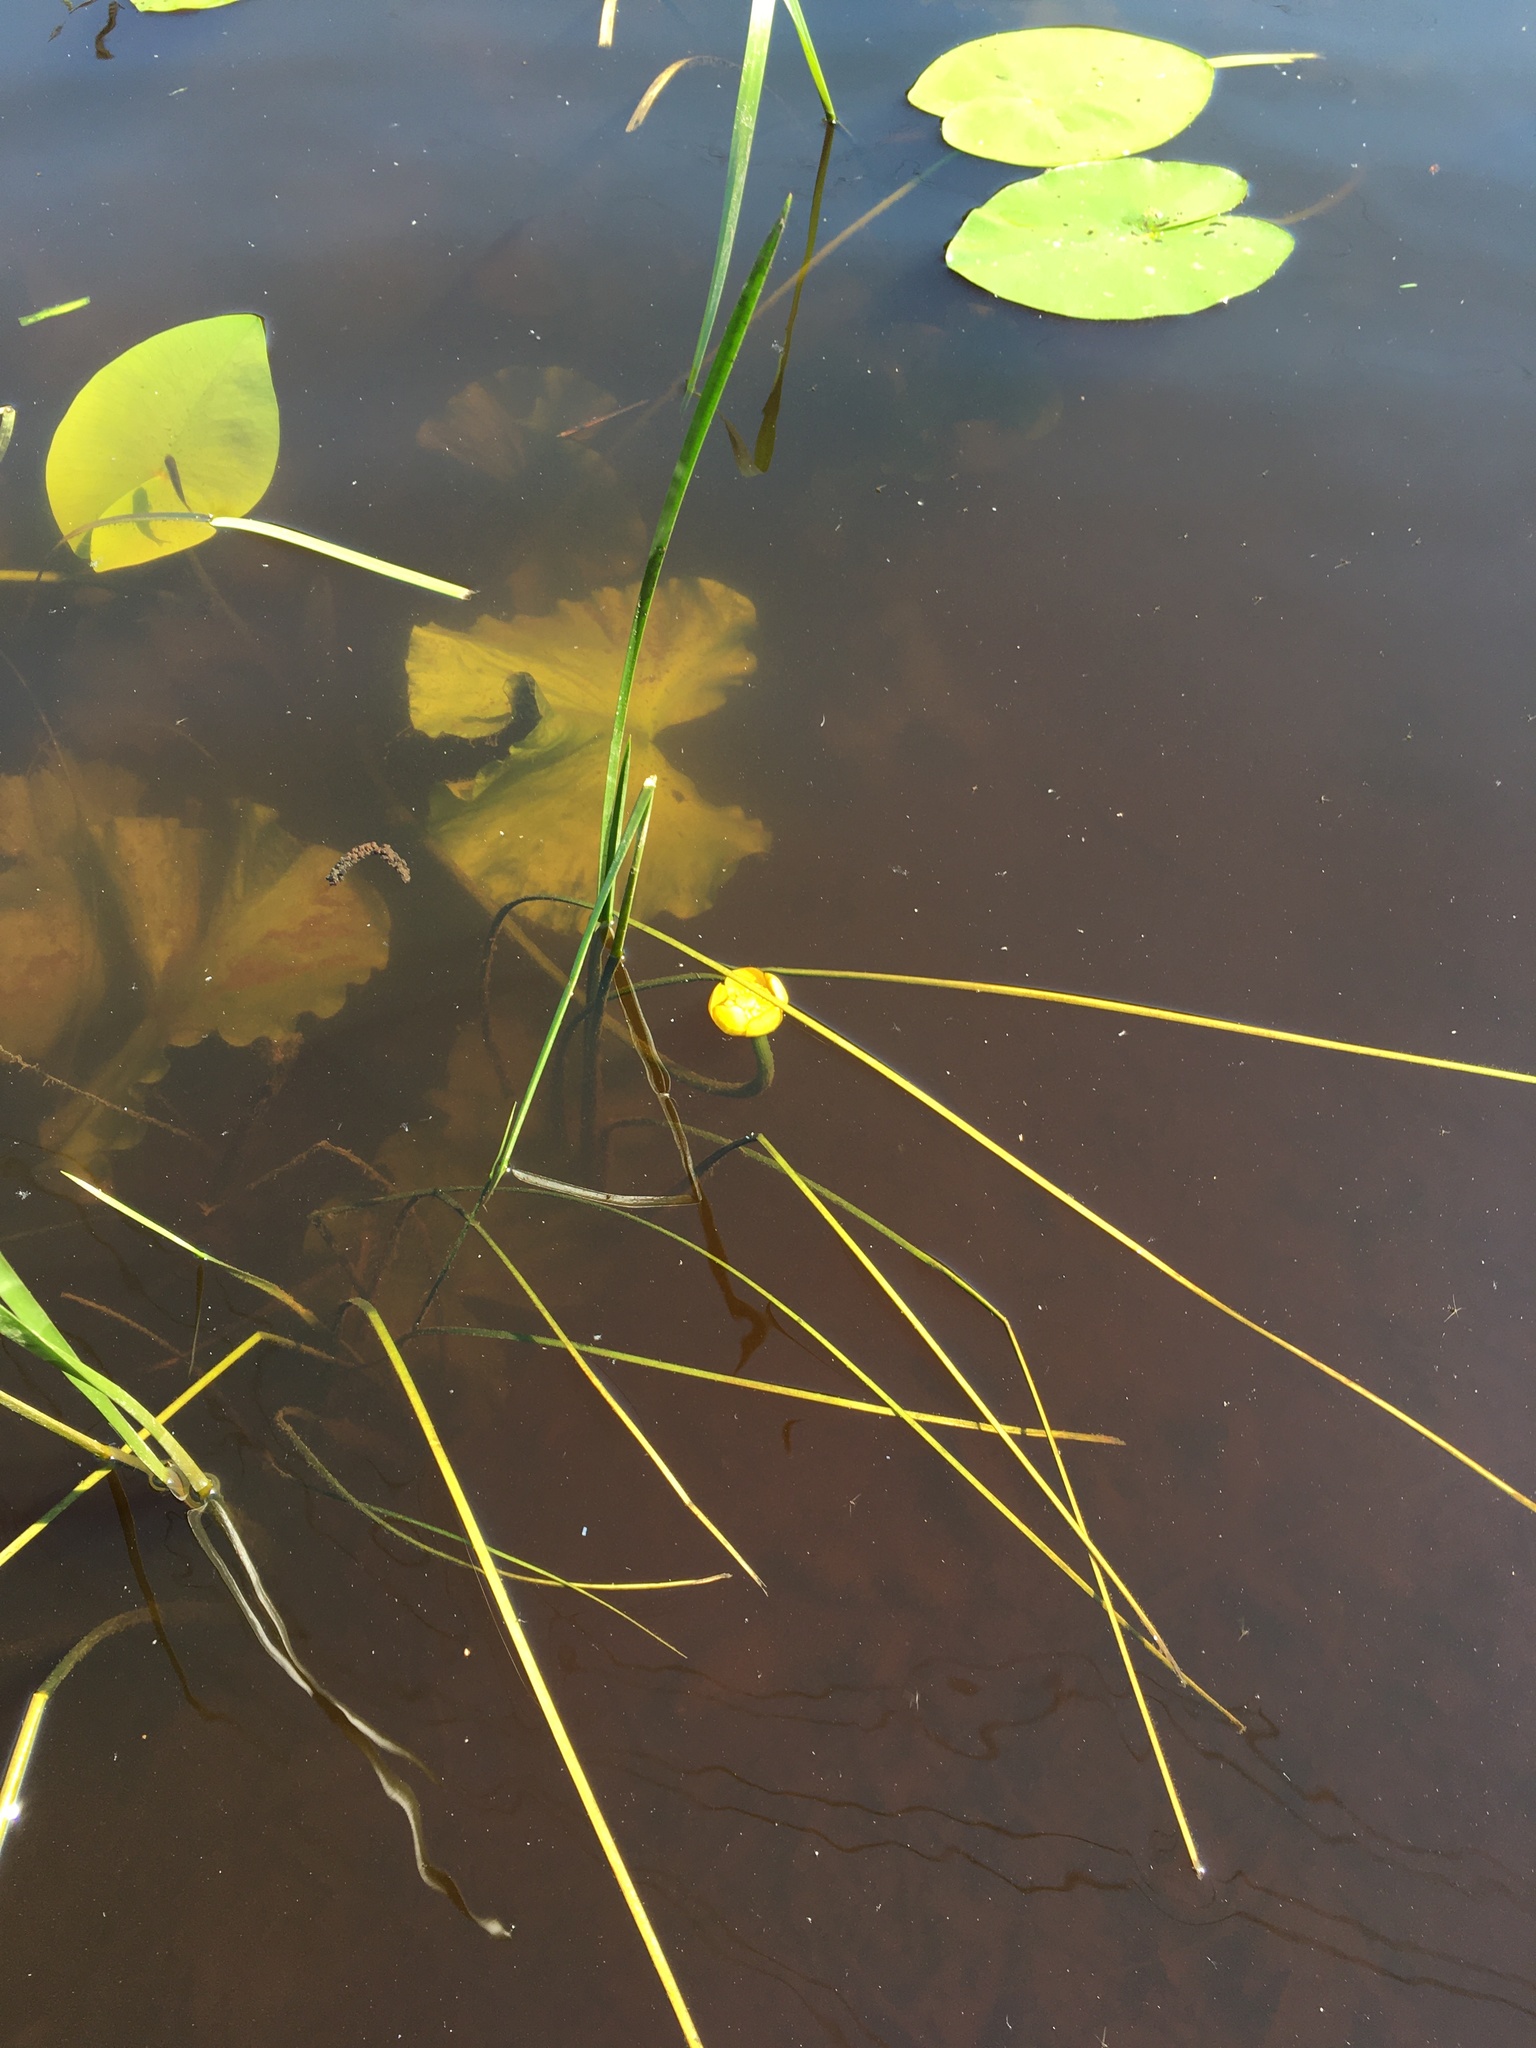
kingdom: Plantae
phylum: Tracheophyta
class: Magnoliopsida
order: Nymphaeales
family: Nymphaeaceae
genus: Nuphar
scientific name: Nuphar lutea
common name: Yellow water-lily
